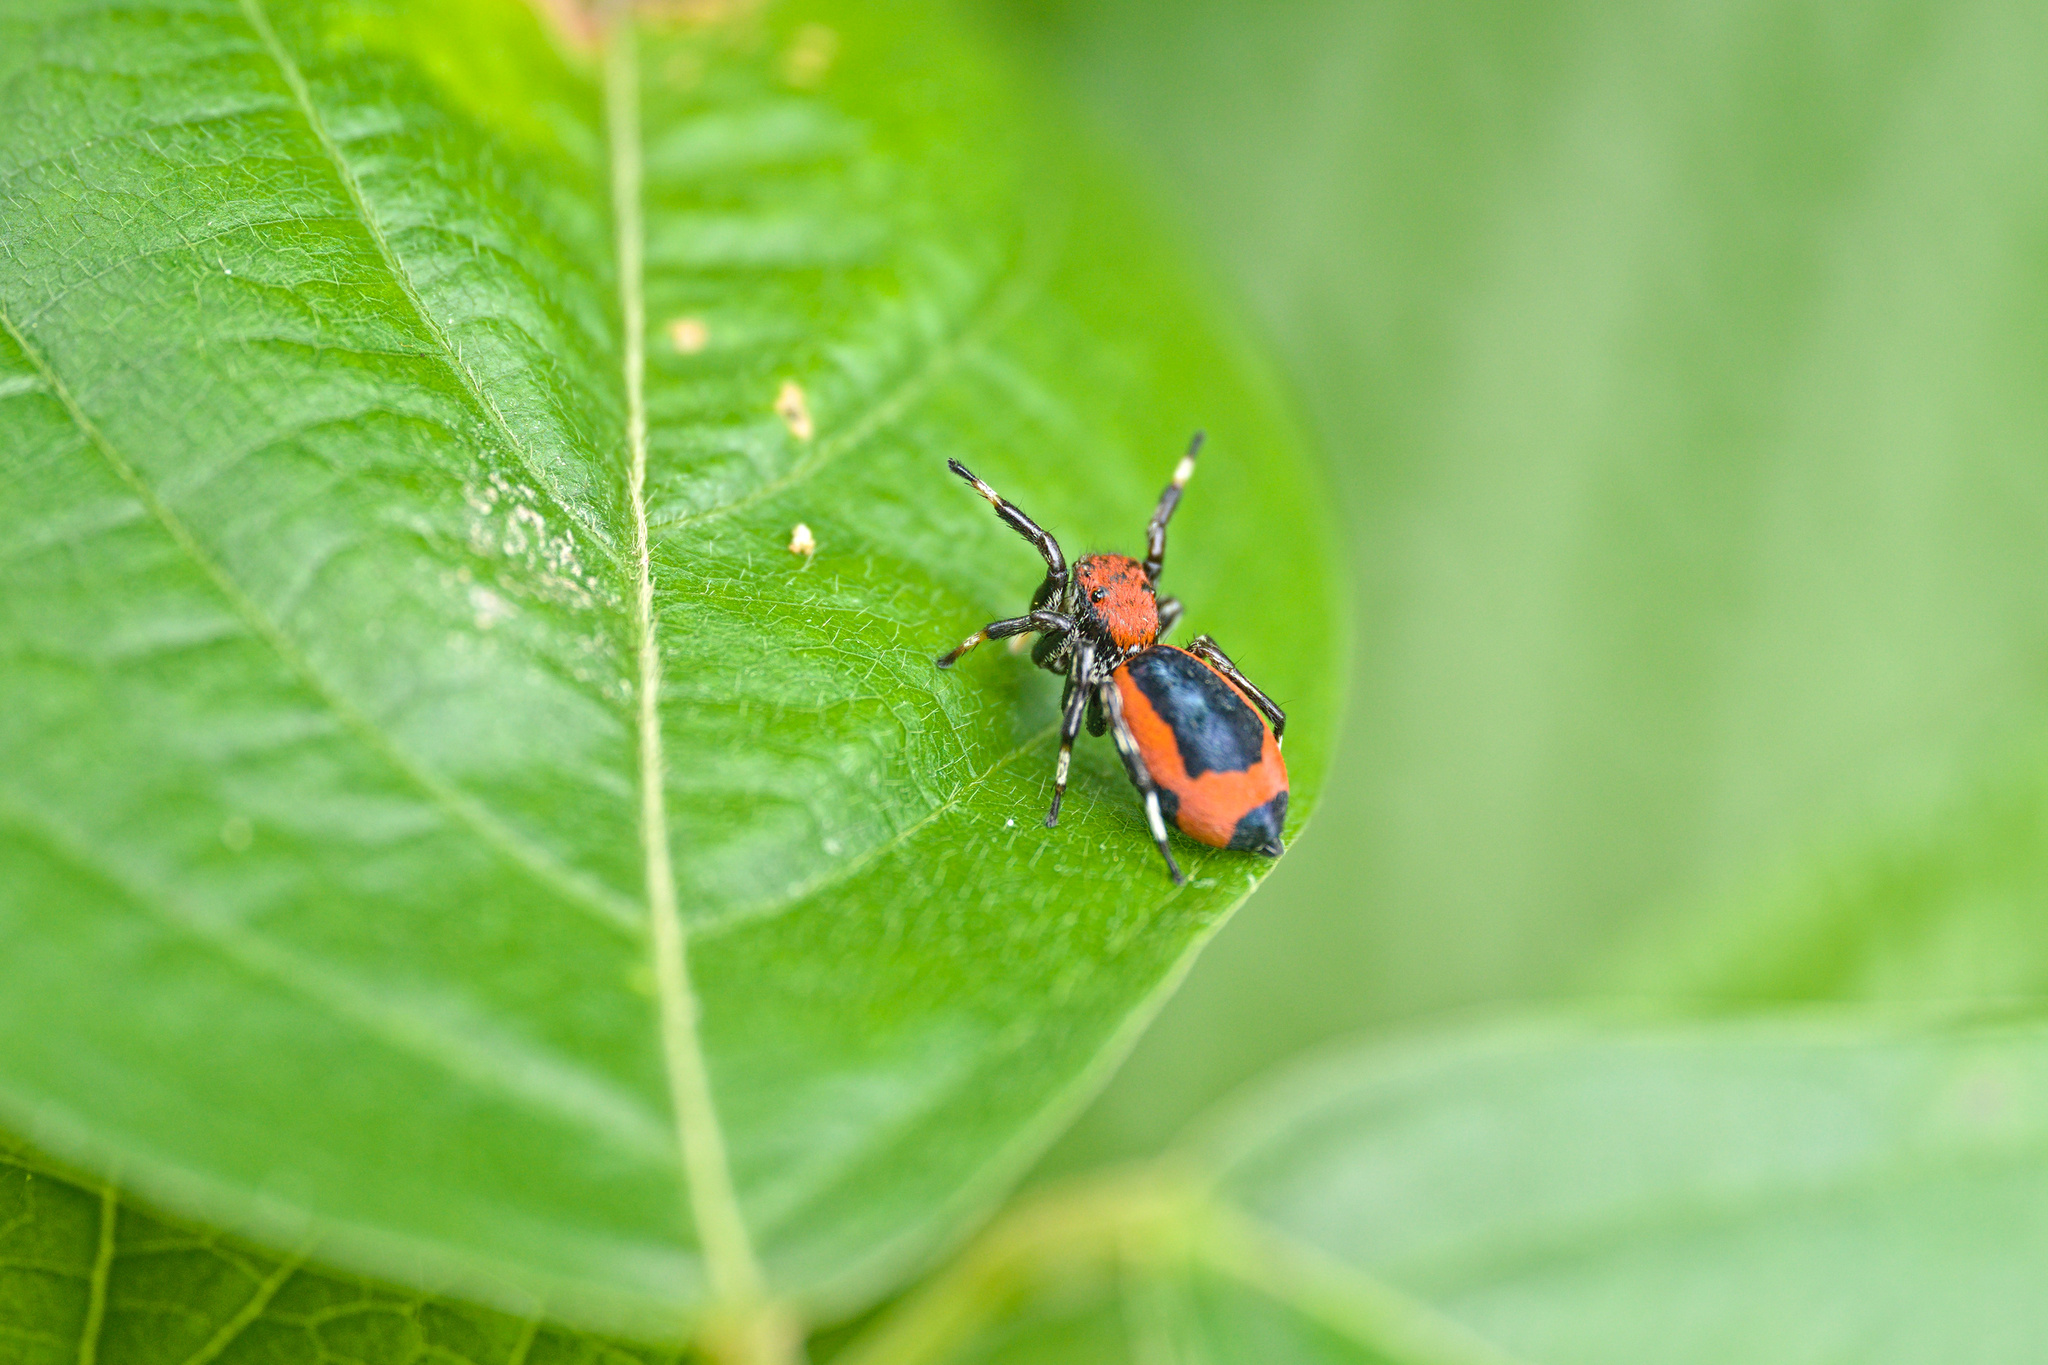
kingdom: Animalia
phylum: Arthropoda
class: Arachnida
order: Araneae
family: Salticidae
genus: Phiale
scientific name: Phiale mimica
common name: Jumping spiders
